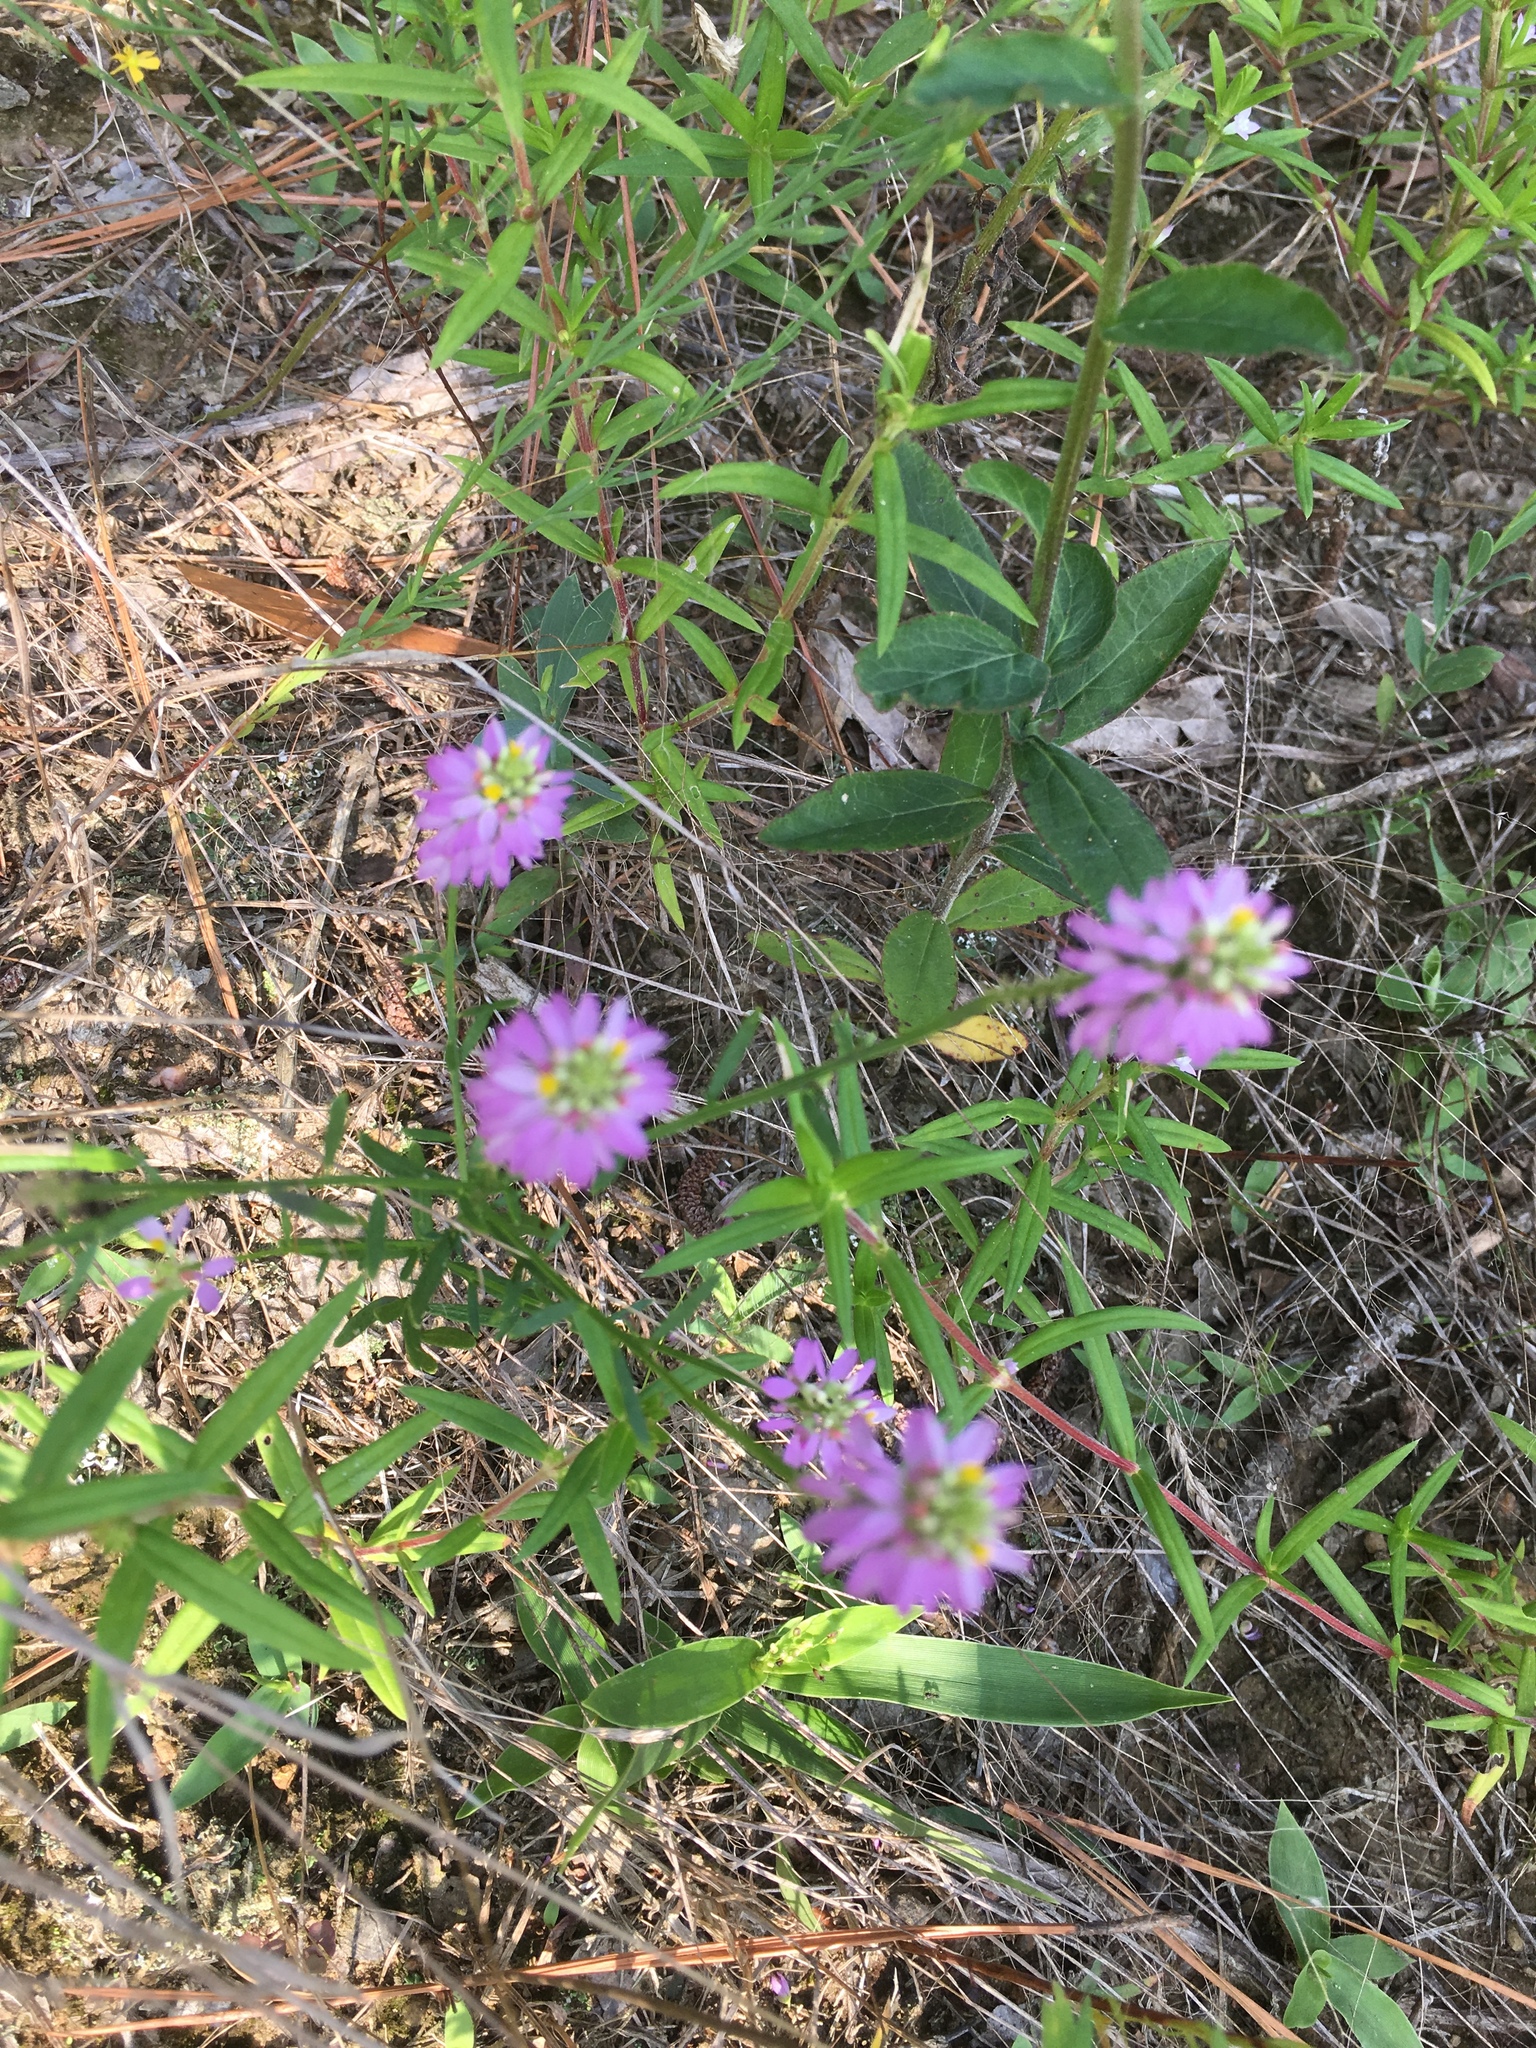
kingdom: Plantae
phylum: Tracheophyta
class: Magnoliopsida
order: Fabales
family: Polygalaceae
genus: Polygala
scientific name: Polygala curtissii
